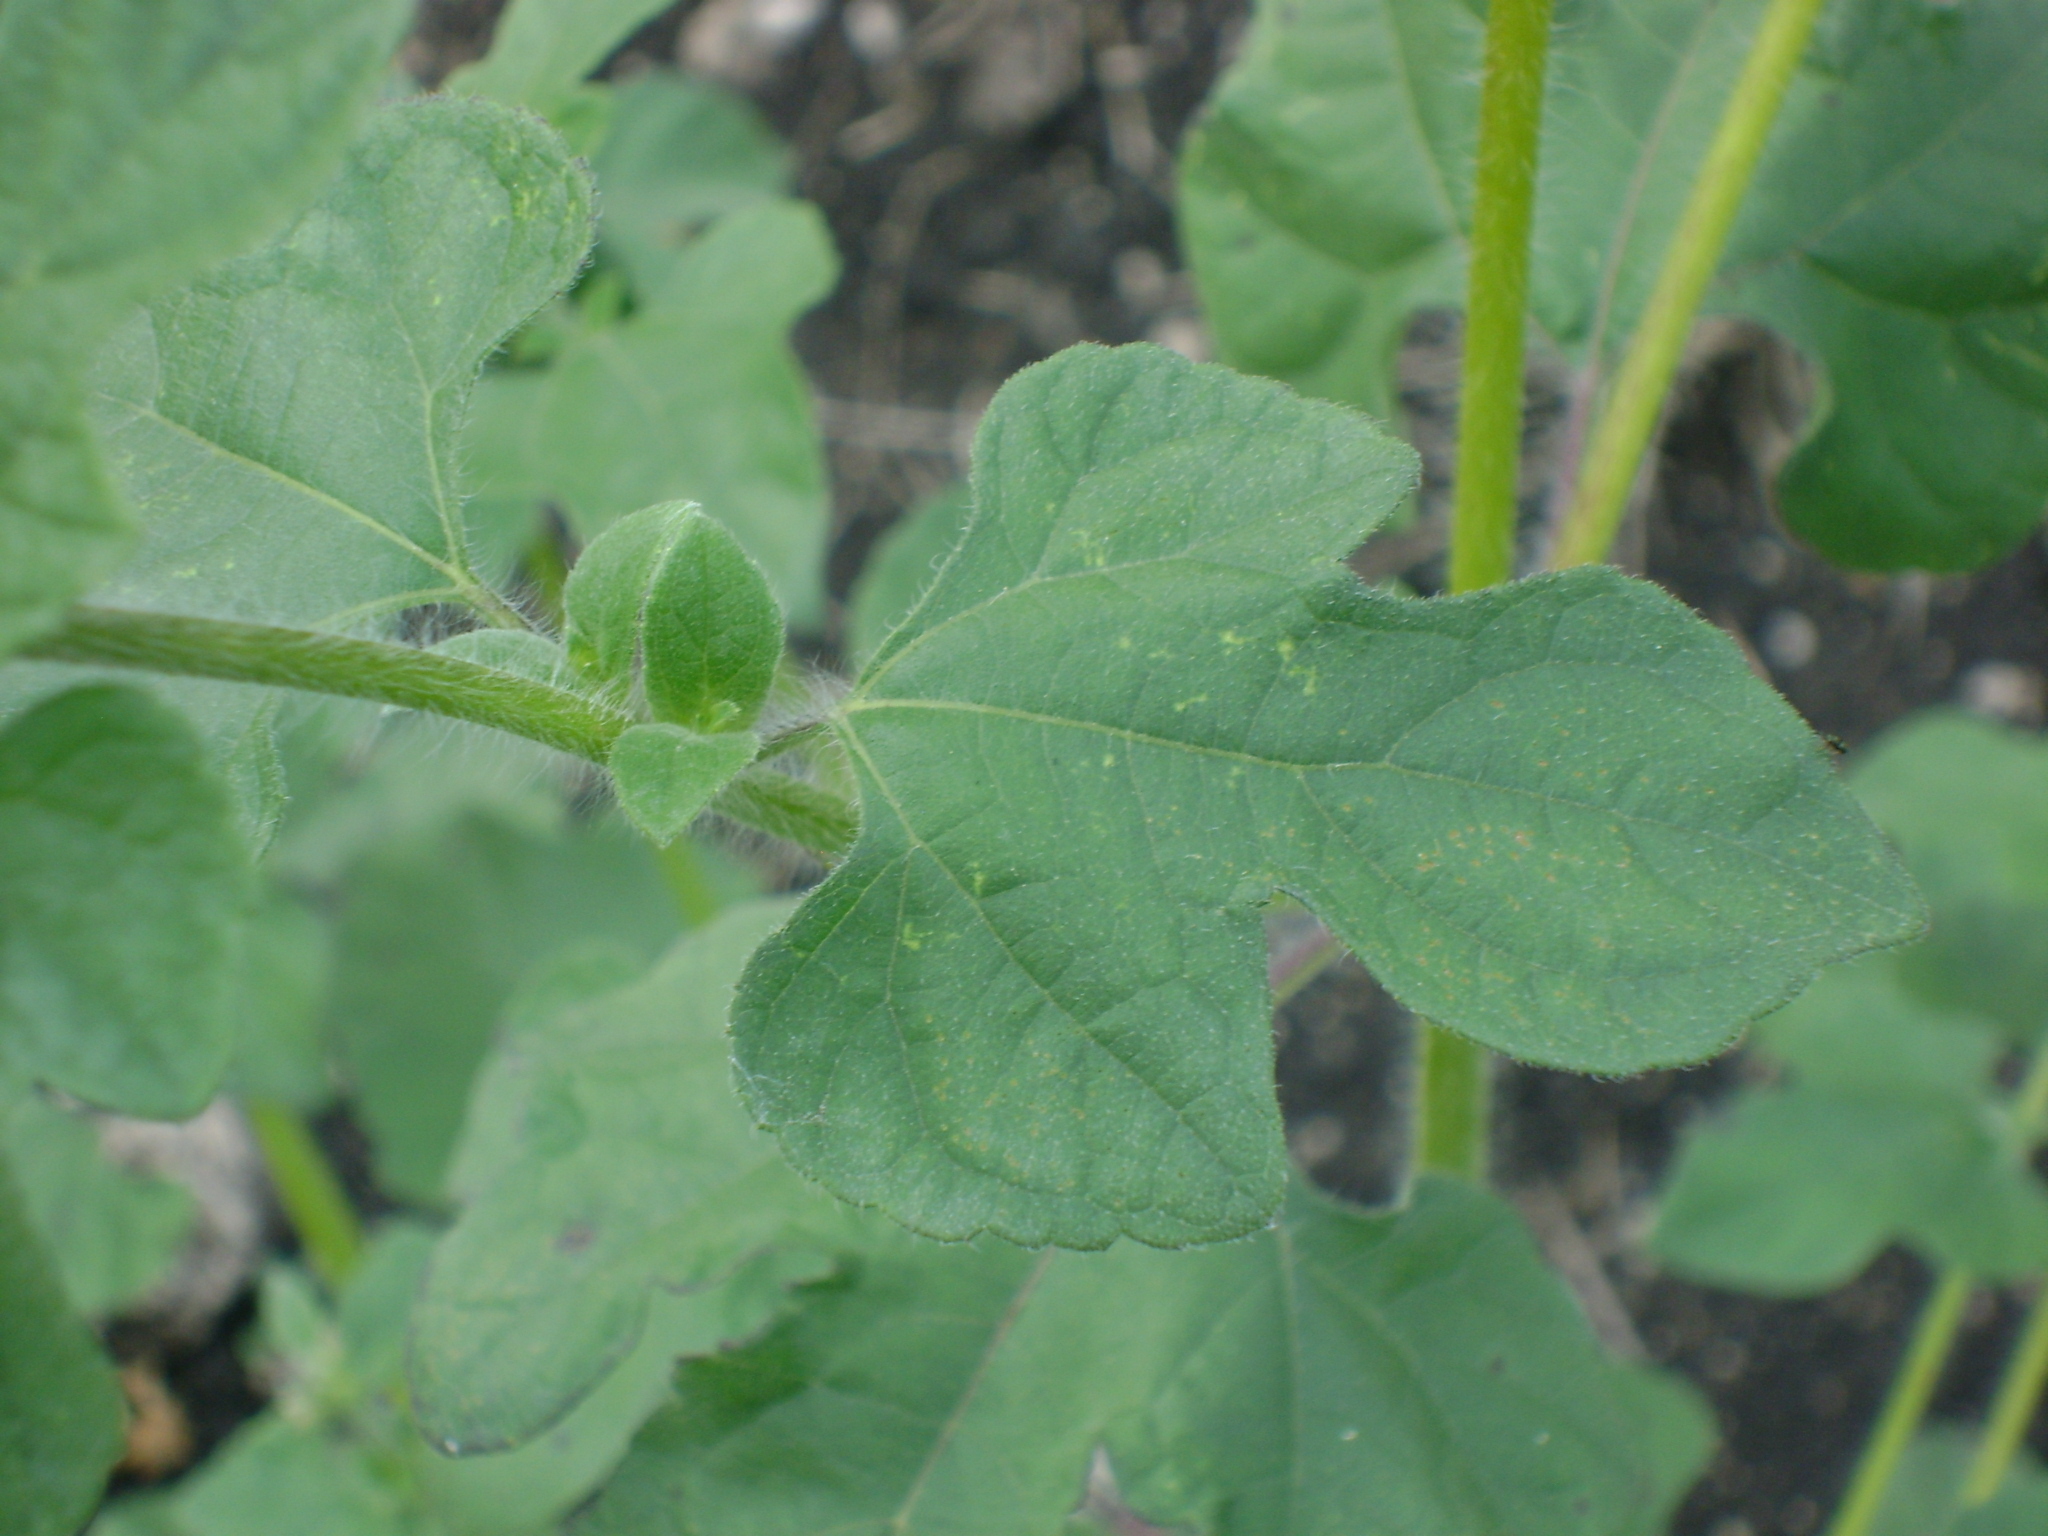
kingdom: Plantae
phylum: Tracheophyta
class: Magnoliopsida
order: Asterales
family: Asteraceae
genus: Simsia
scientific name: Simsia eurylepis
